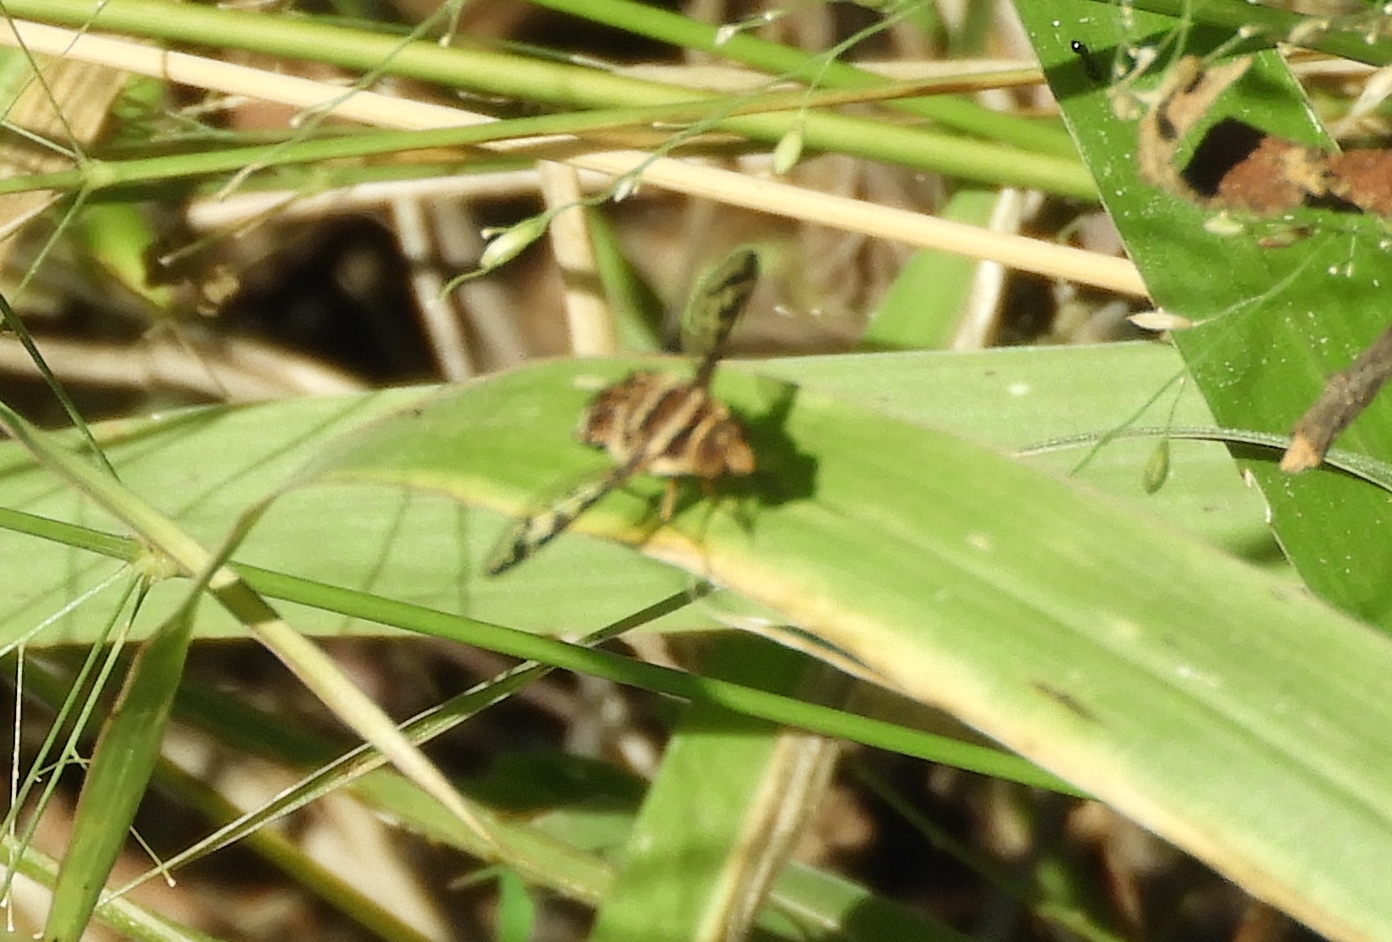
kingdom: Animalia
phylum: Arthropoda
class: Insecta
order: Diptera
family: Bombyliidae
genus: Lepidanthrax
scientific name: Lepidanthrax
